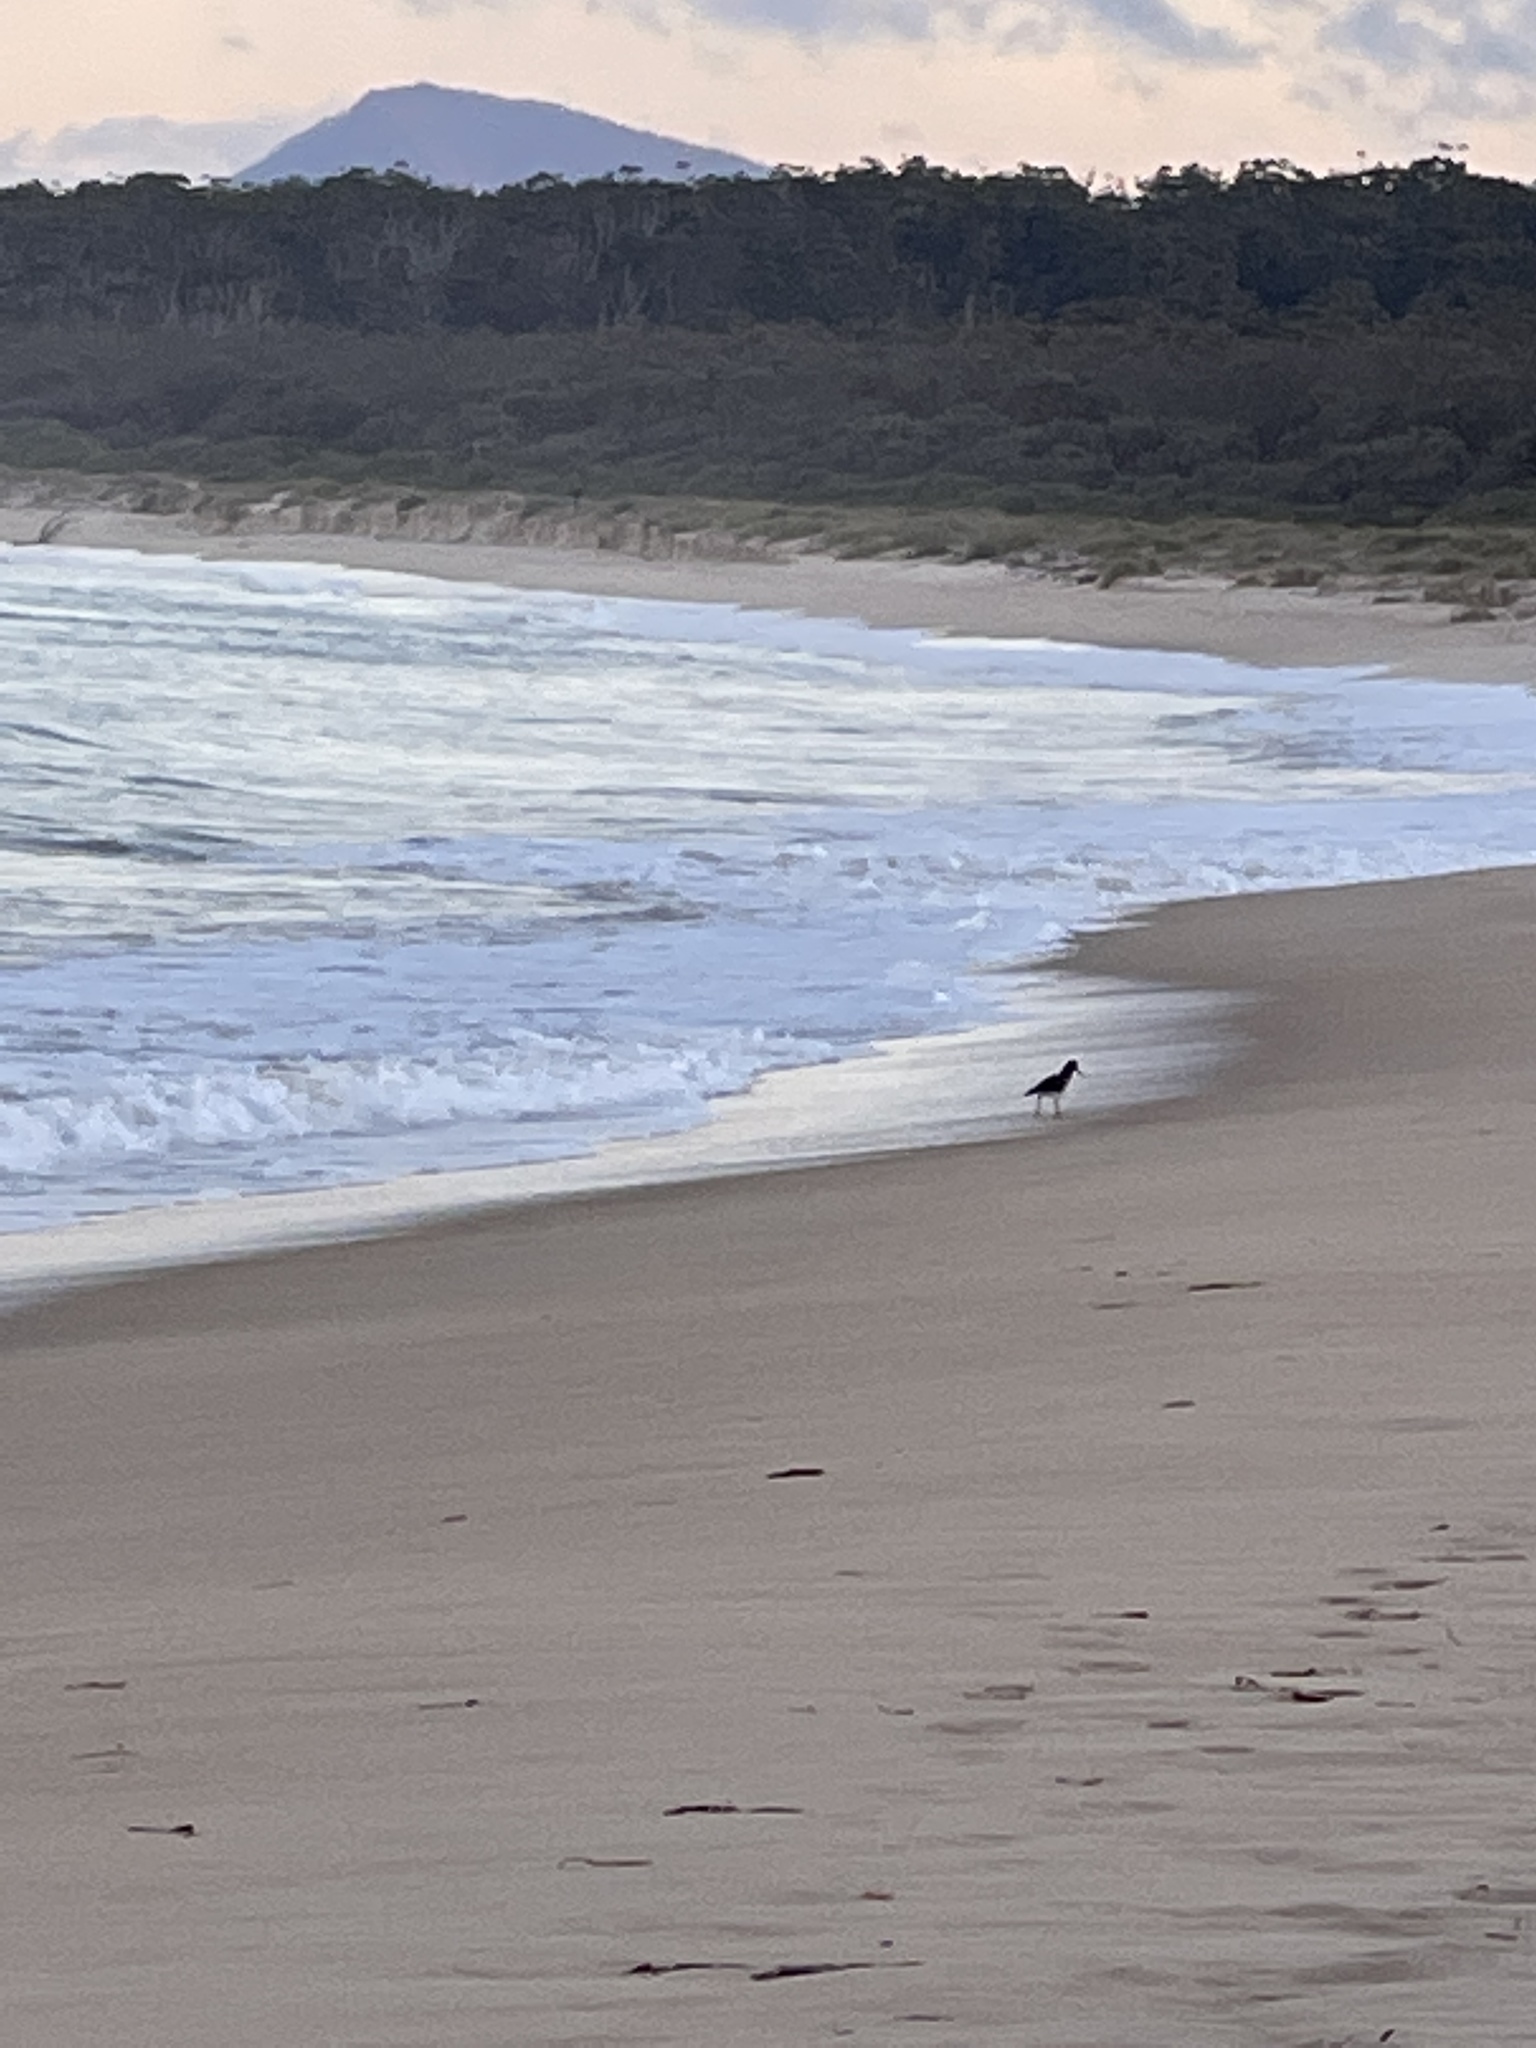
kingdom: Animalia
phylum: Chordata
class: Aves
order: Charadriiformes
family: Haematopodidae
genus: Haematopus
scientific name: Haematopus longirostris
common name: Pied oystercatcher
